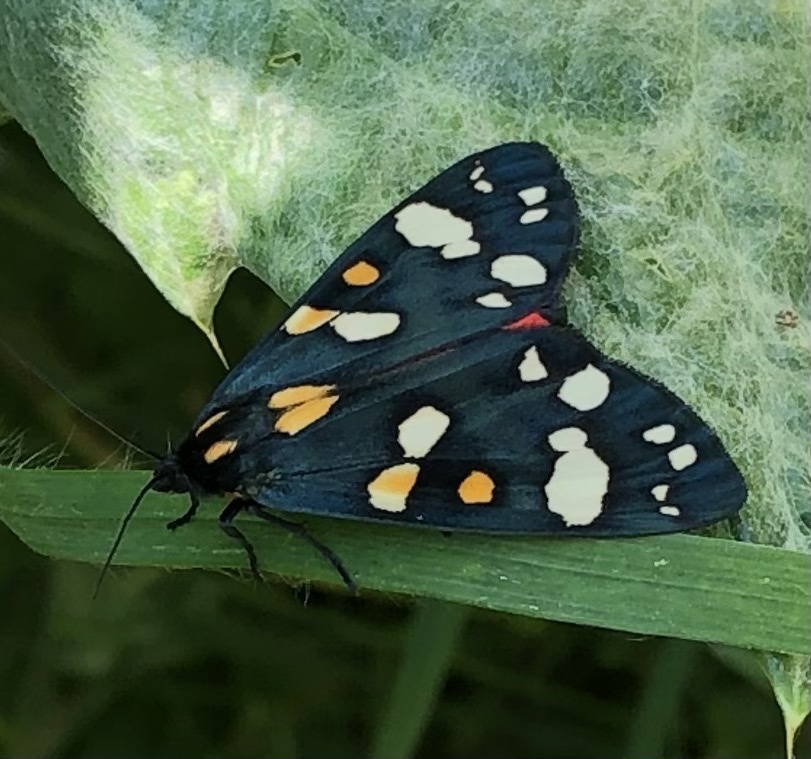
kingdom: Animalia
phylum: Arthropoda
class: Insecta
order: Lepidoptera
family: Erebidae
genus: Callimorpha
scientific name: Callimorpha dominula
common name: Scarlet tiger
